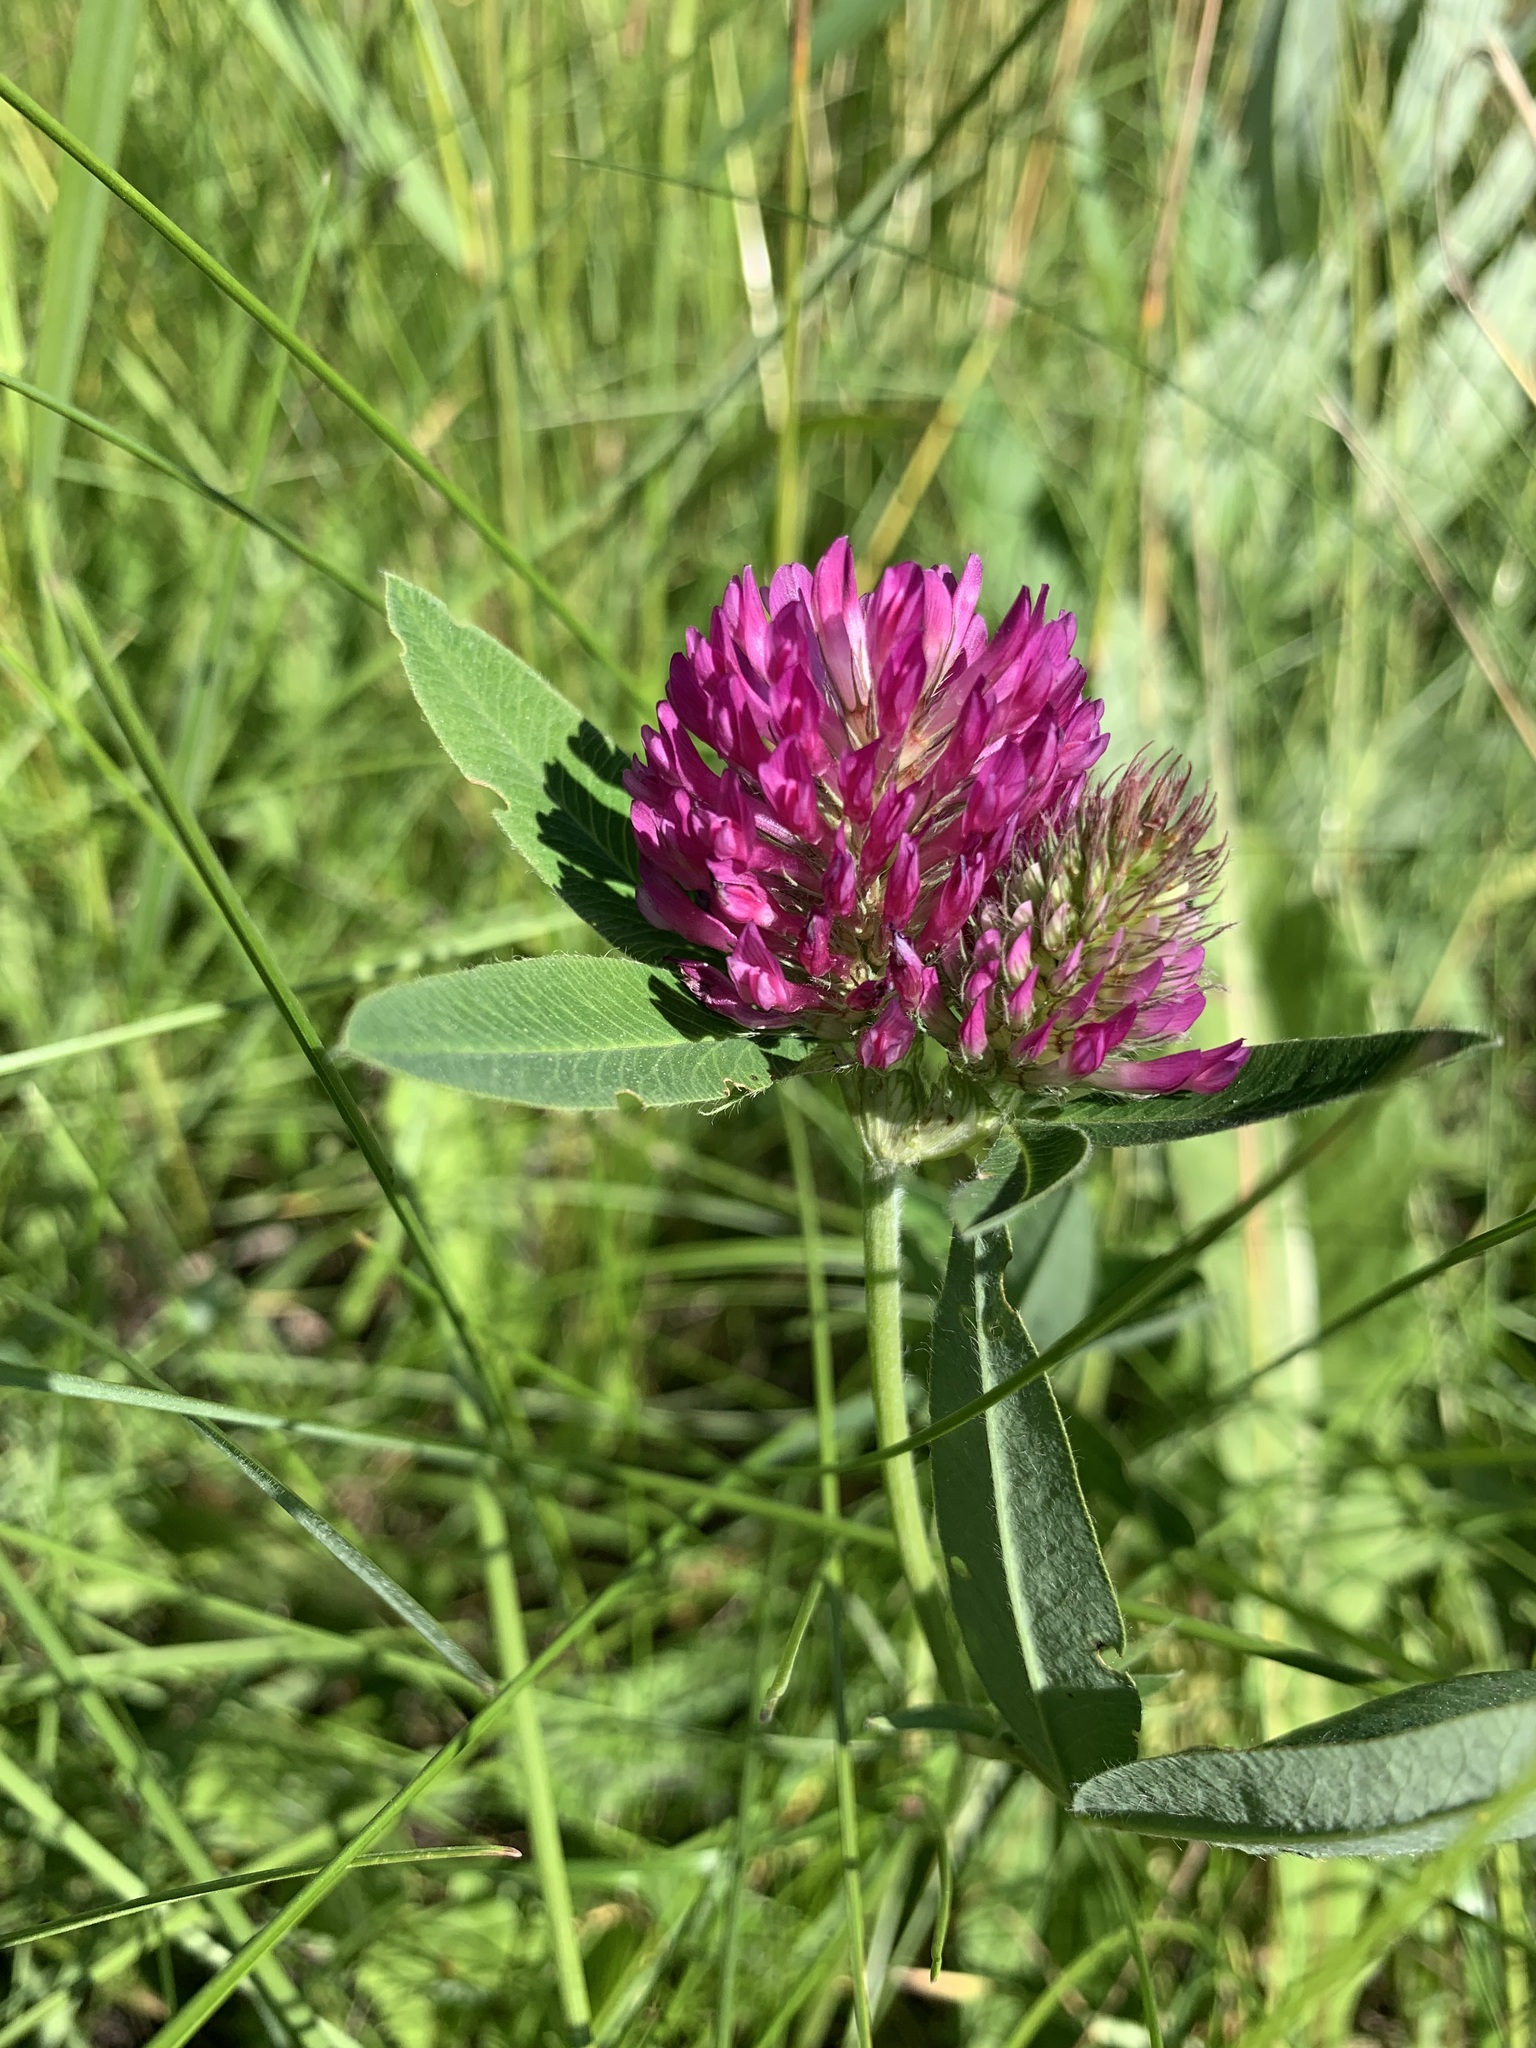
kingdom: Plantae
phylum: Tracheophyta
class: Magnoliopsida
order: Fabales
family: Fabaceae
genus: Trifolium
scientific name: Trifolium medium
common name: Zigzag clover
